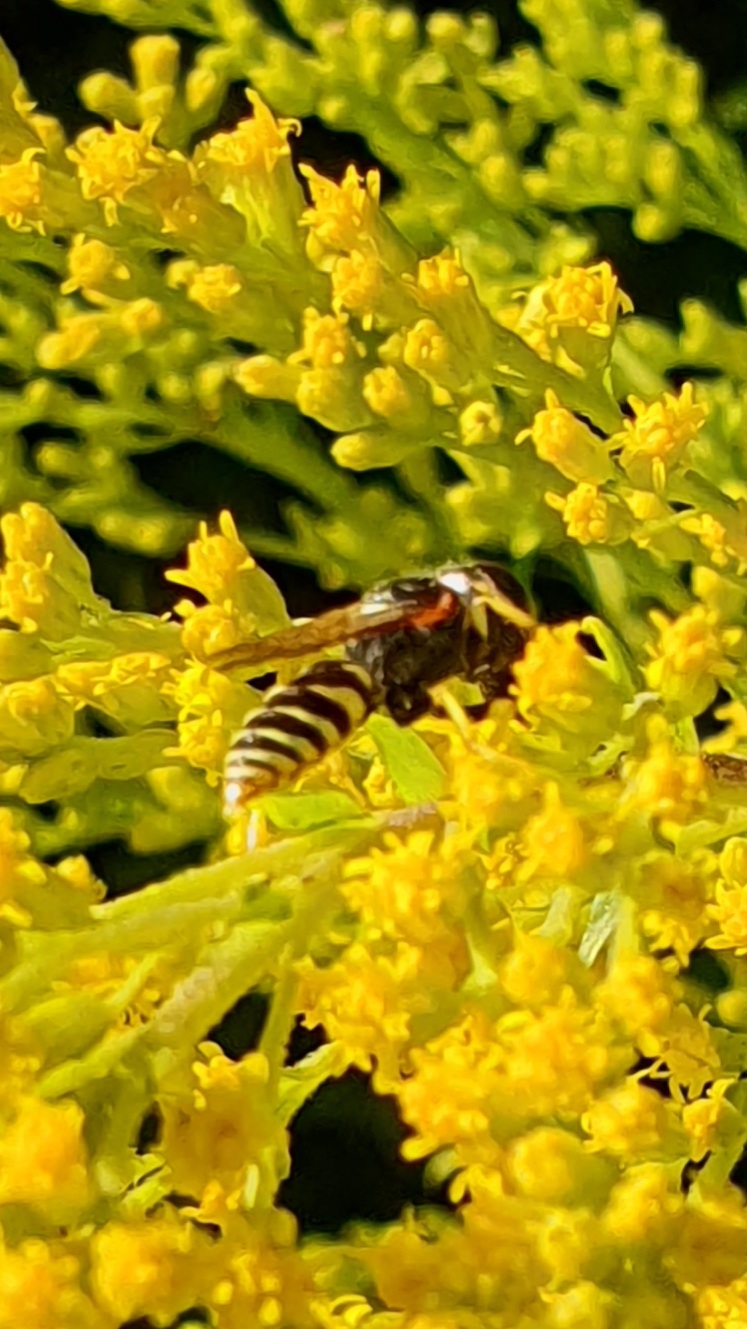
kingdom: Animalia
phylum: Arthropoda
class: Insecta
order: Hymenoptera
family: Crabronidae
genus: Philanthus
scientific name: Philanthus triangulum
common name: Bee wolf
